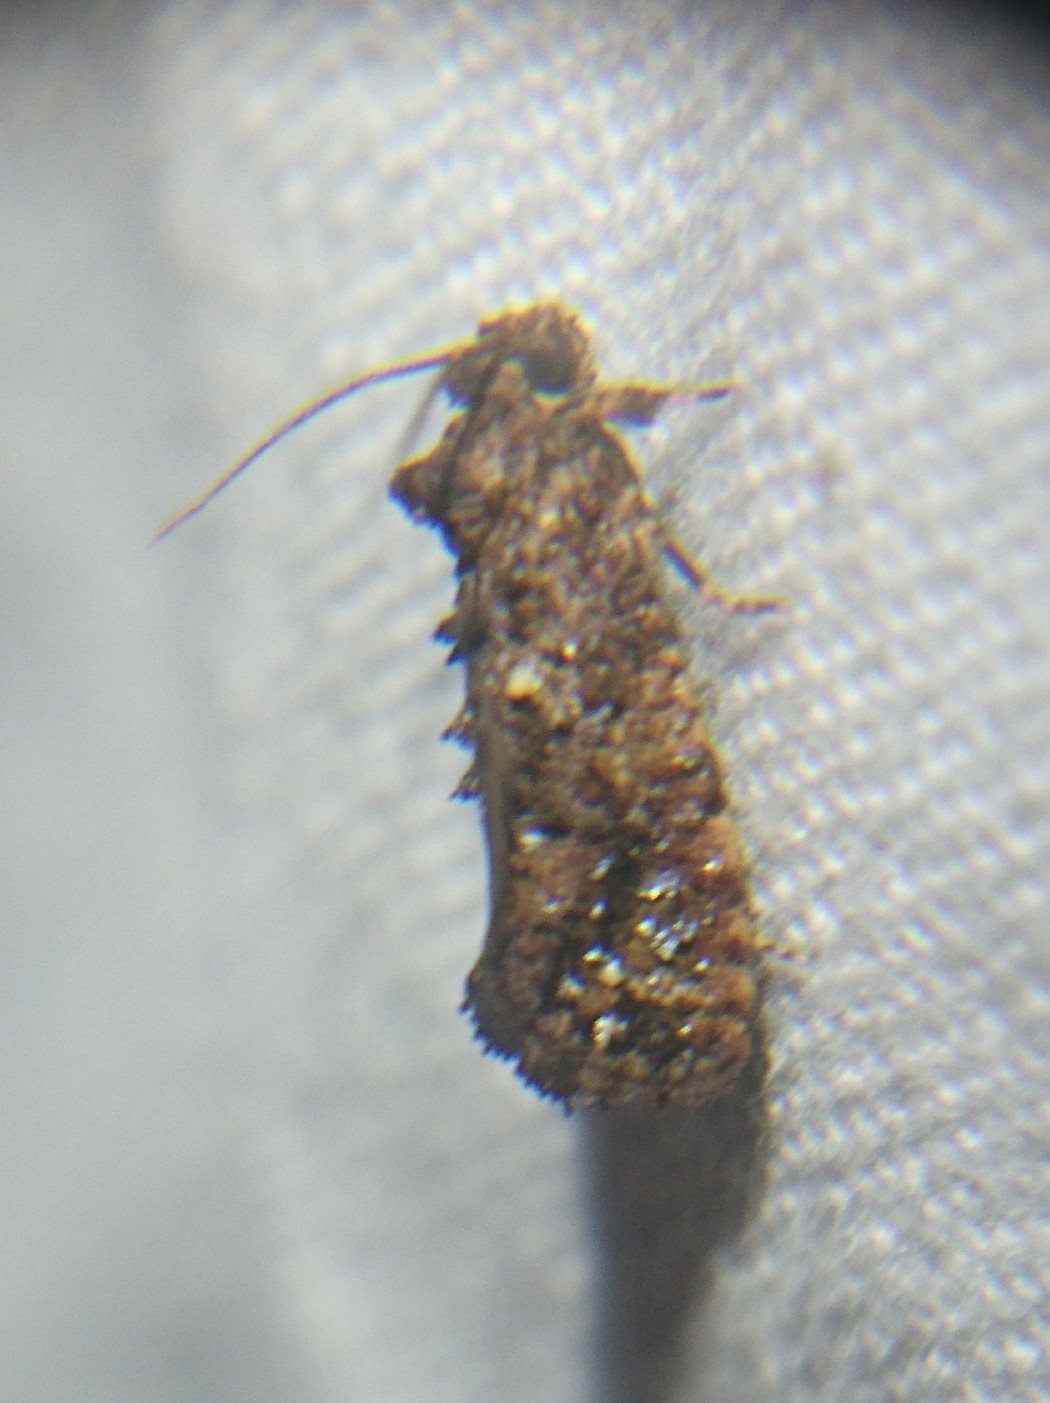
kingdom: Animalia
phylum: Arthropoda
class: Insecta
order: Lepidoptera
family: Tineidae
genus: Acrolophus
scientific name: Acrolophus cressoni
